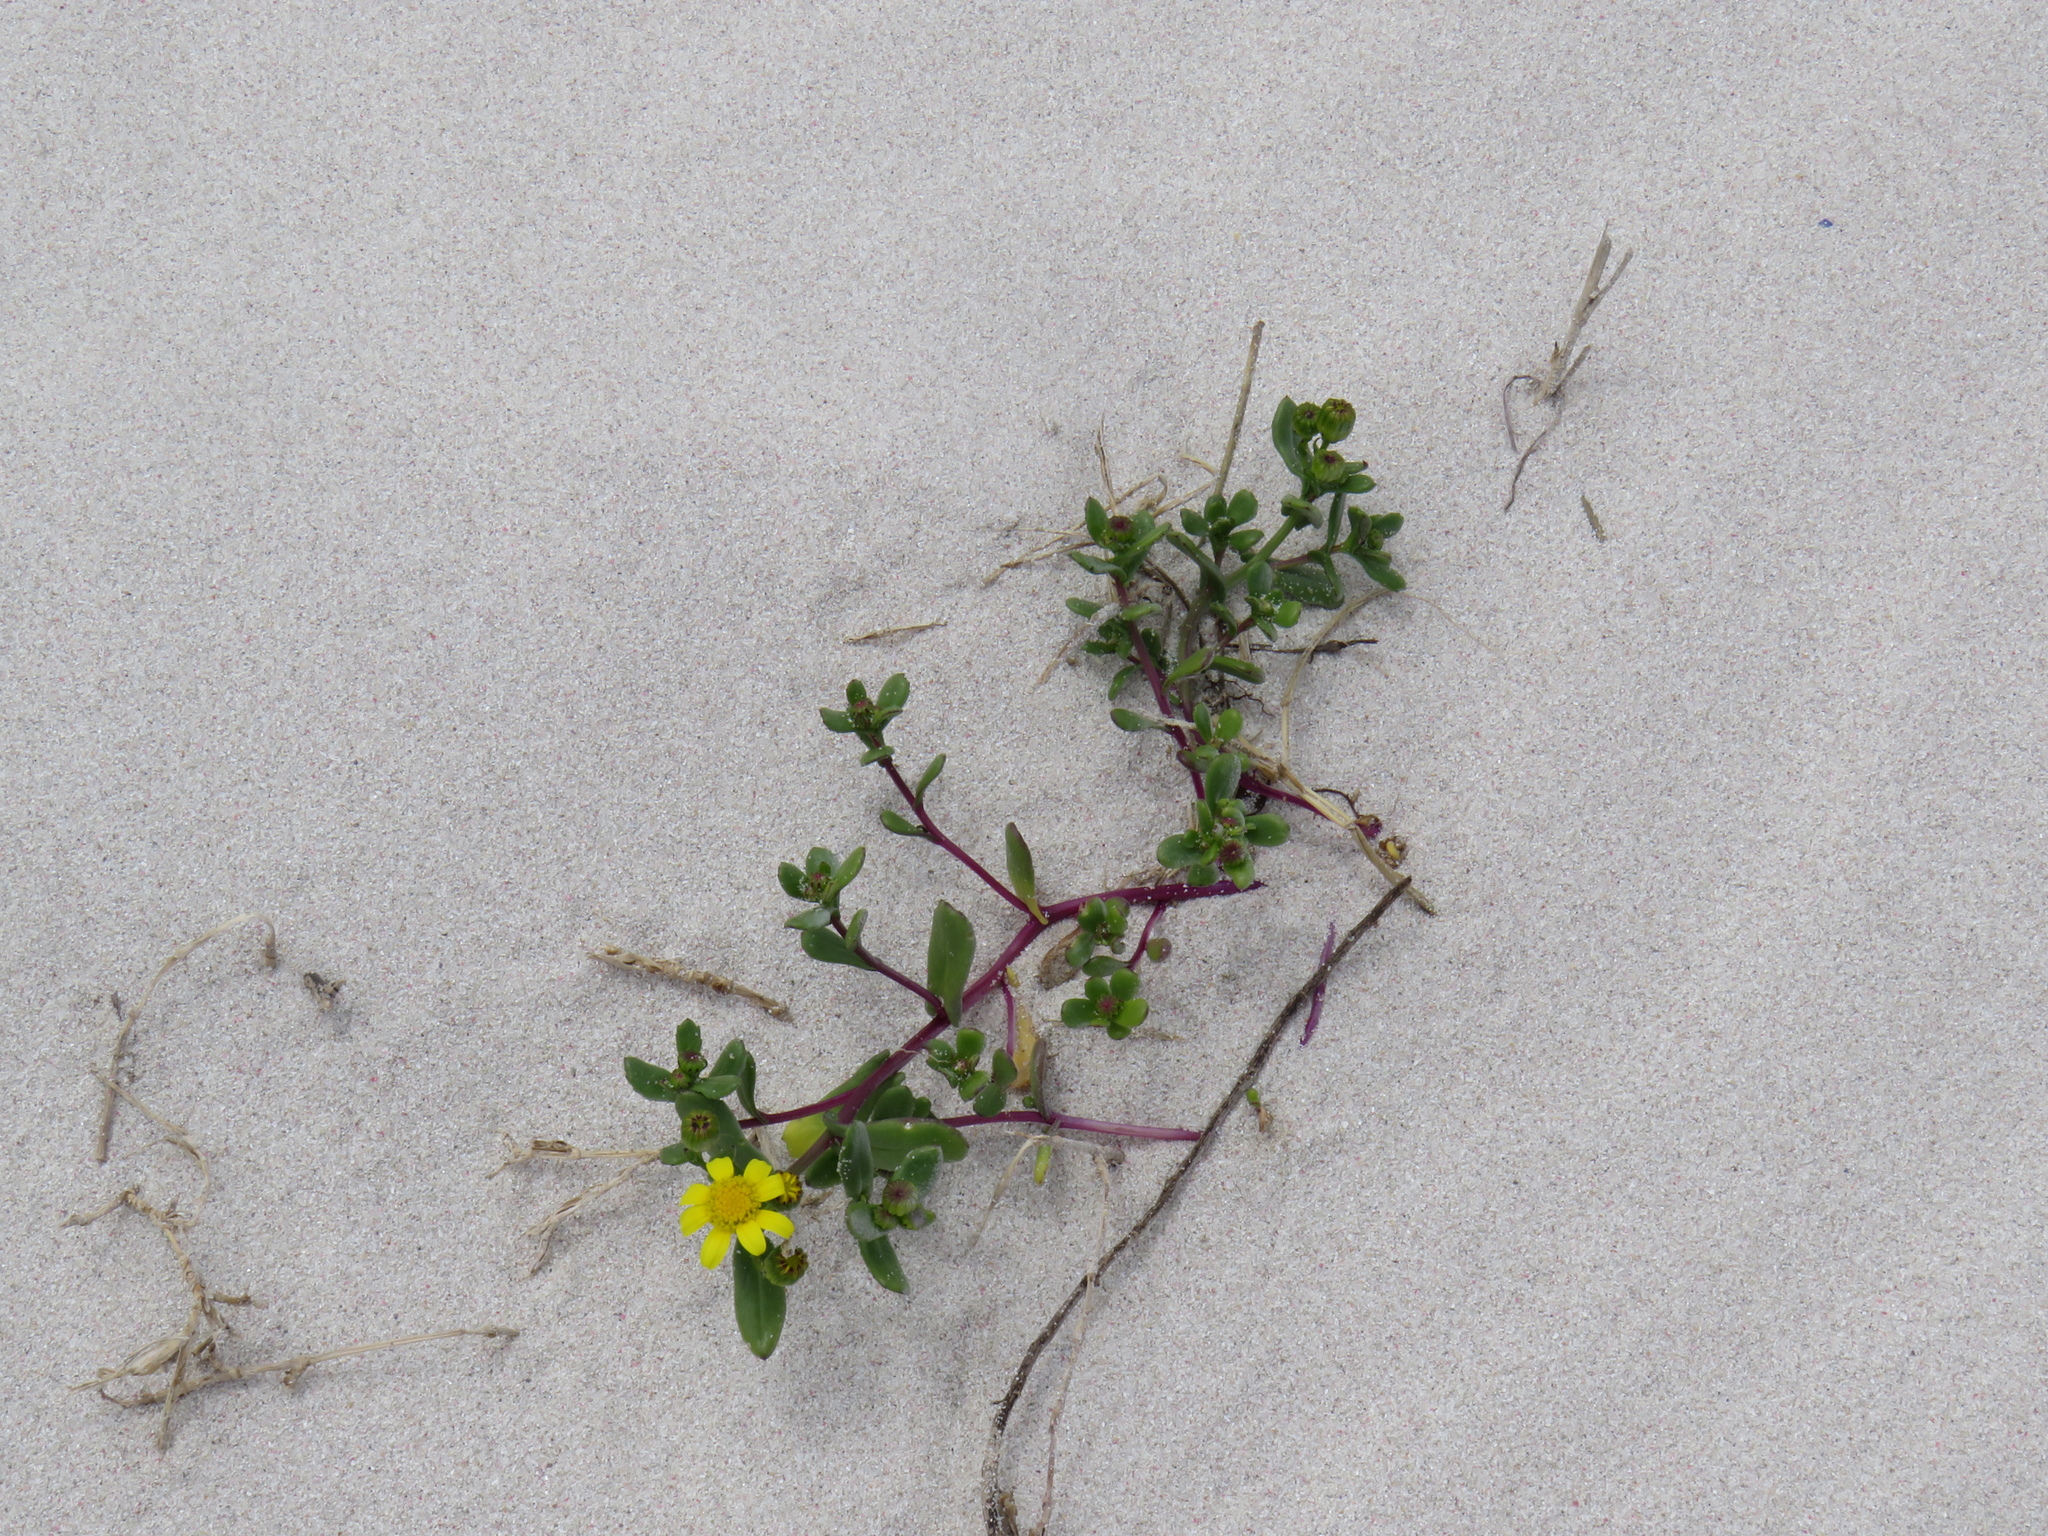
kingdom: Plantae
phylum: Tracheophyta
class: Magnoliopsida
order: Asterales
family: Asteraceae
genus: Senecio
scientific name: Senecio maritimus
